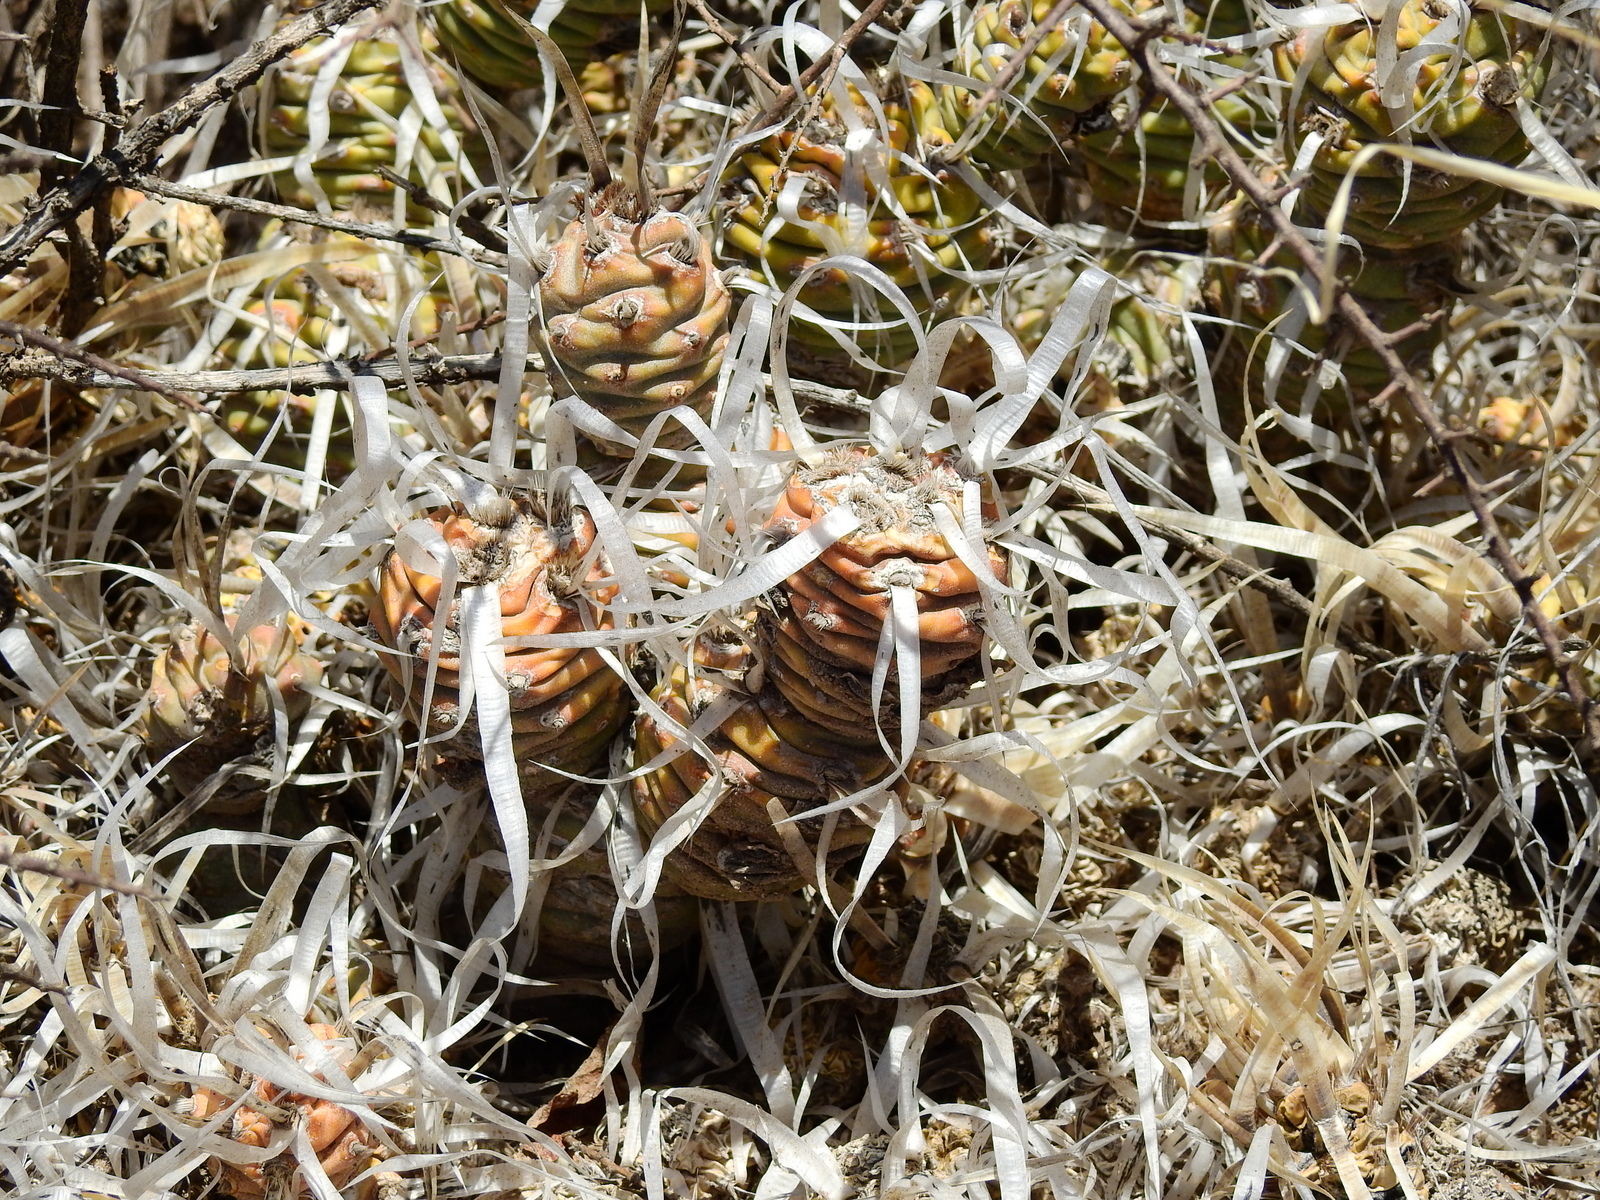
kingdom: Plantae
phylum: Tracheophyta
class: Magnoliopsida
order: Caryophyllales
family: Cactaceae
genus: Tephrocactus
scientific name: Tephrocactus articulatus
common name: Paper cactus
